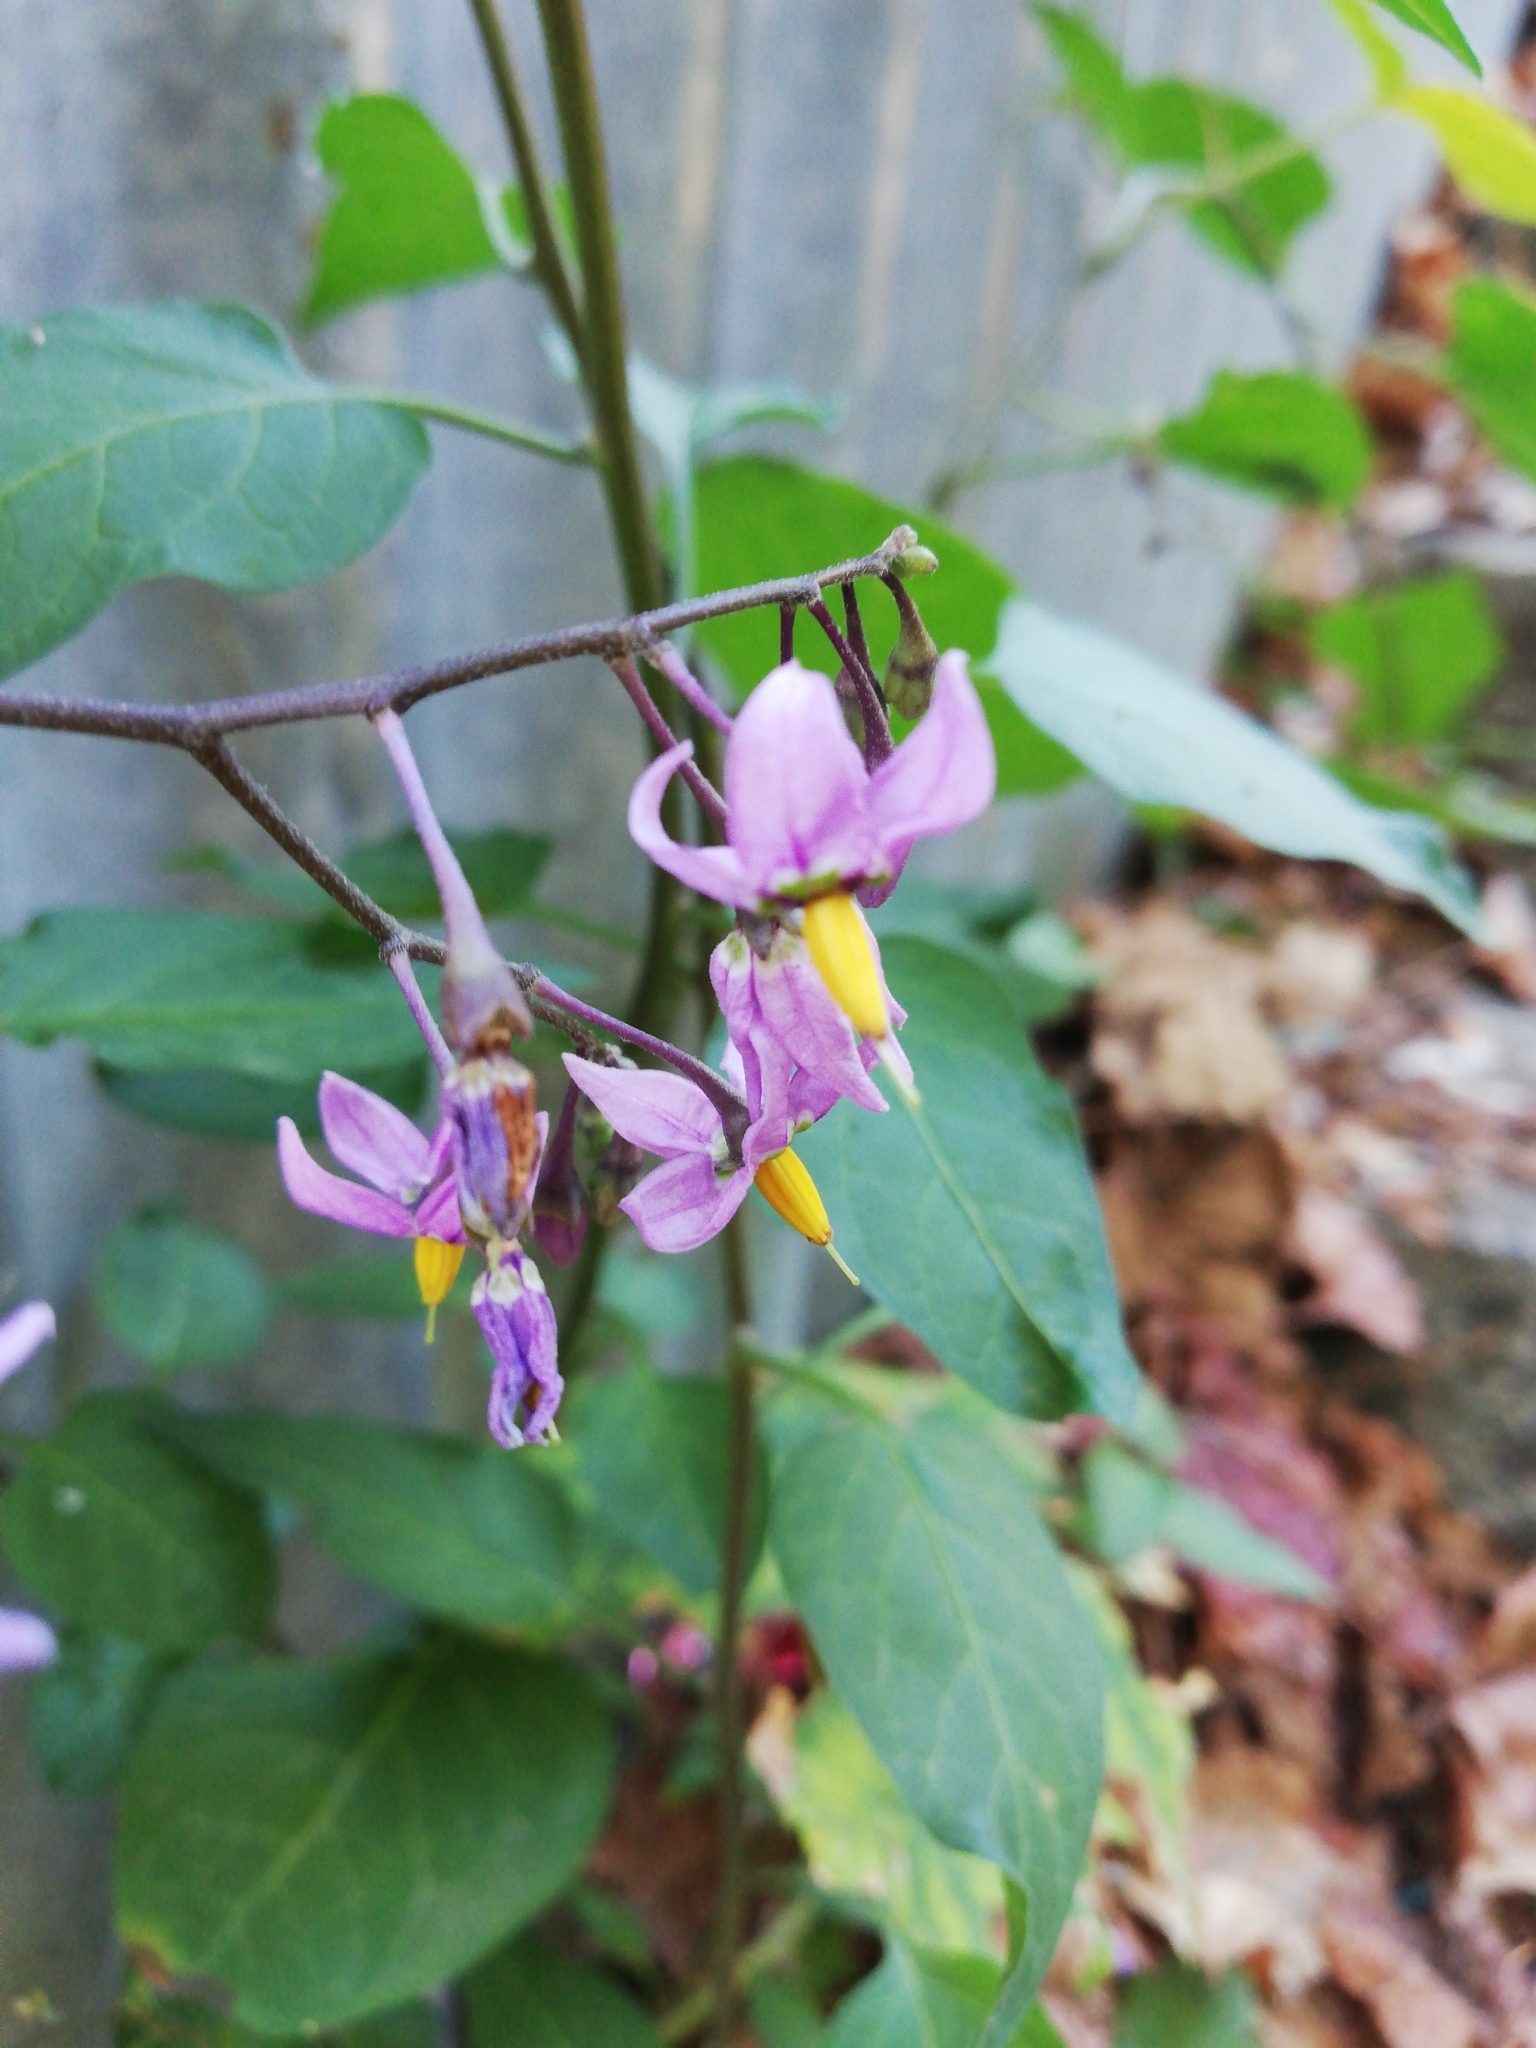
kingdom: Plantae
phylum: Tracheophyta
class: Magnoliopsida
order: Solanales
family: Solanaceae
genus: Solanum
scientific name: Solanum dulcamara
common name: Climbing nightshade
